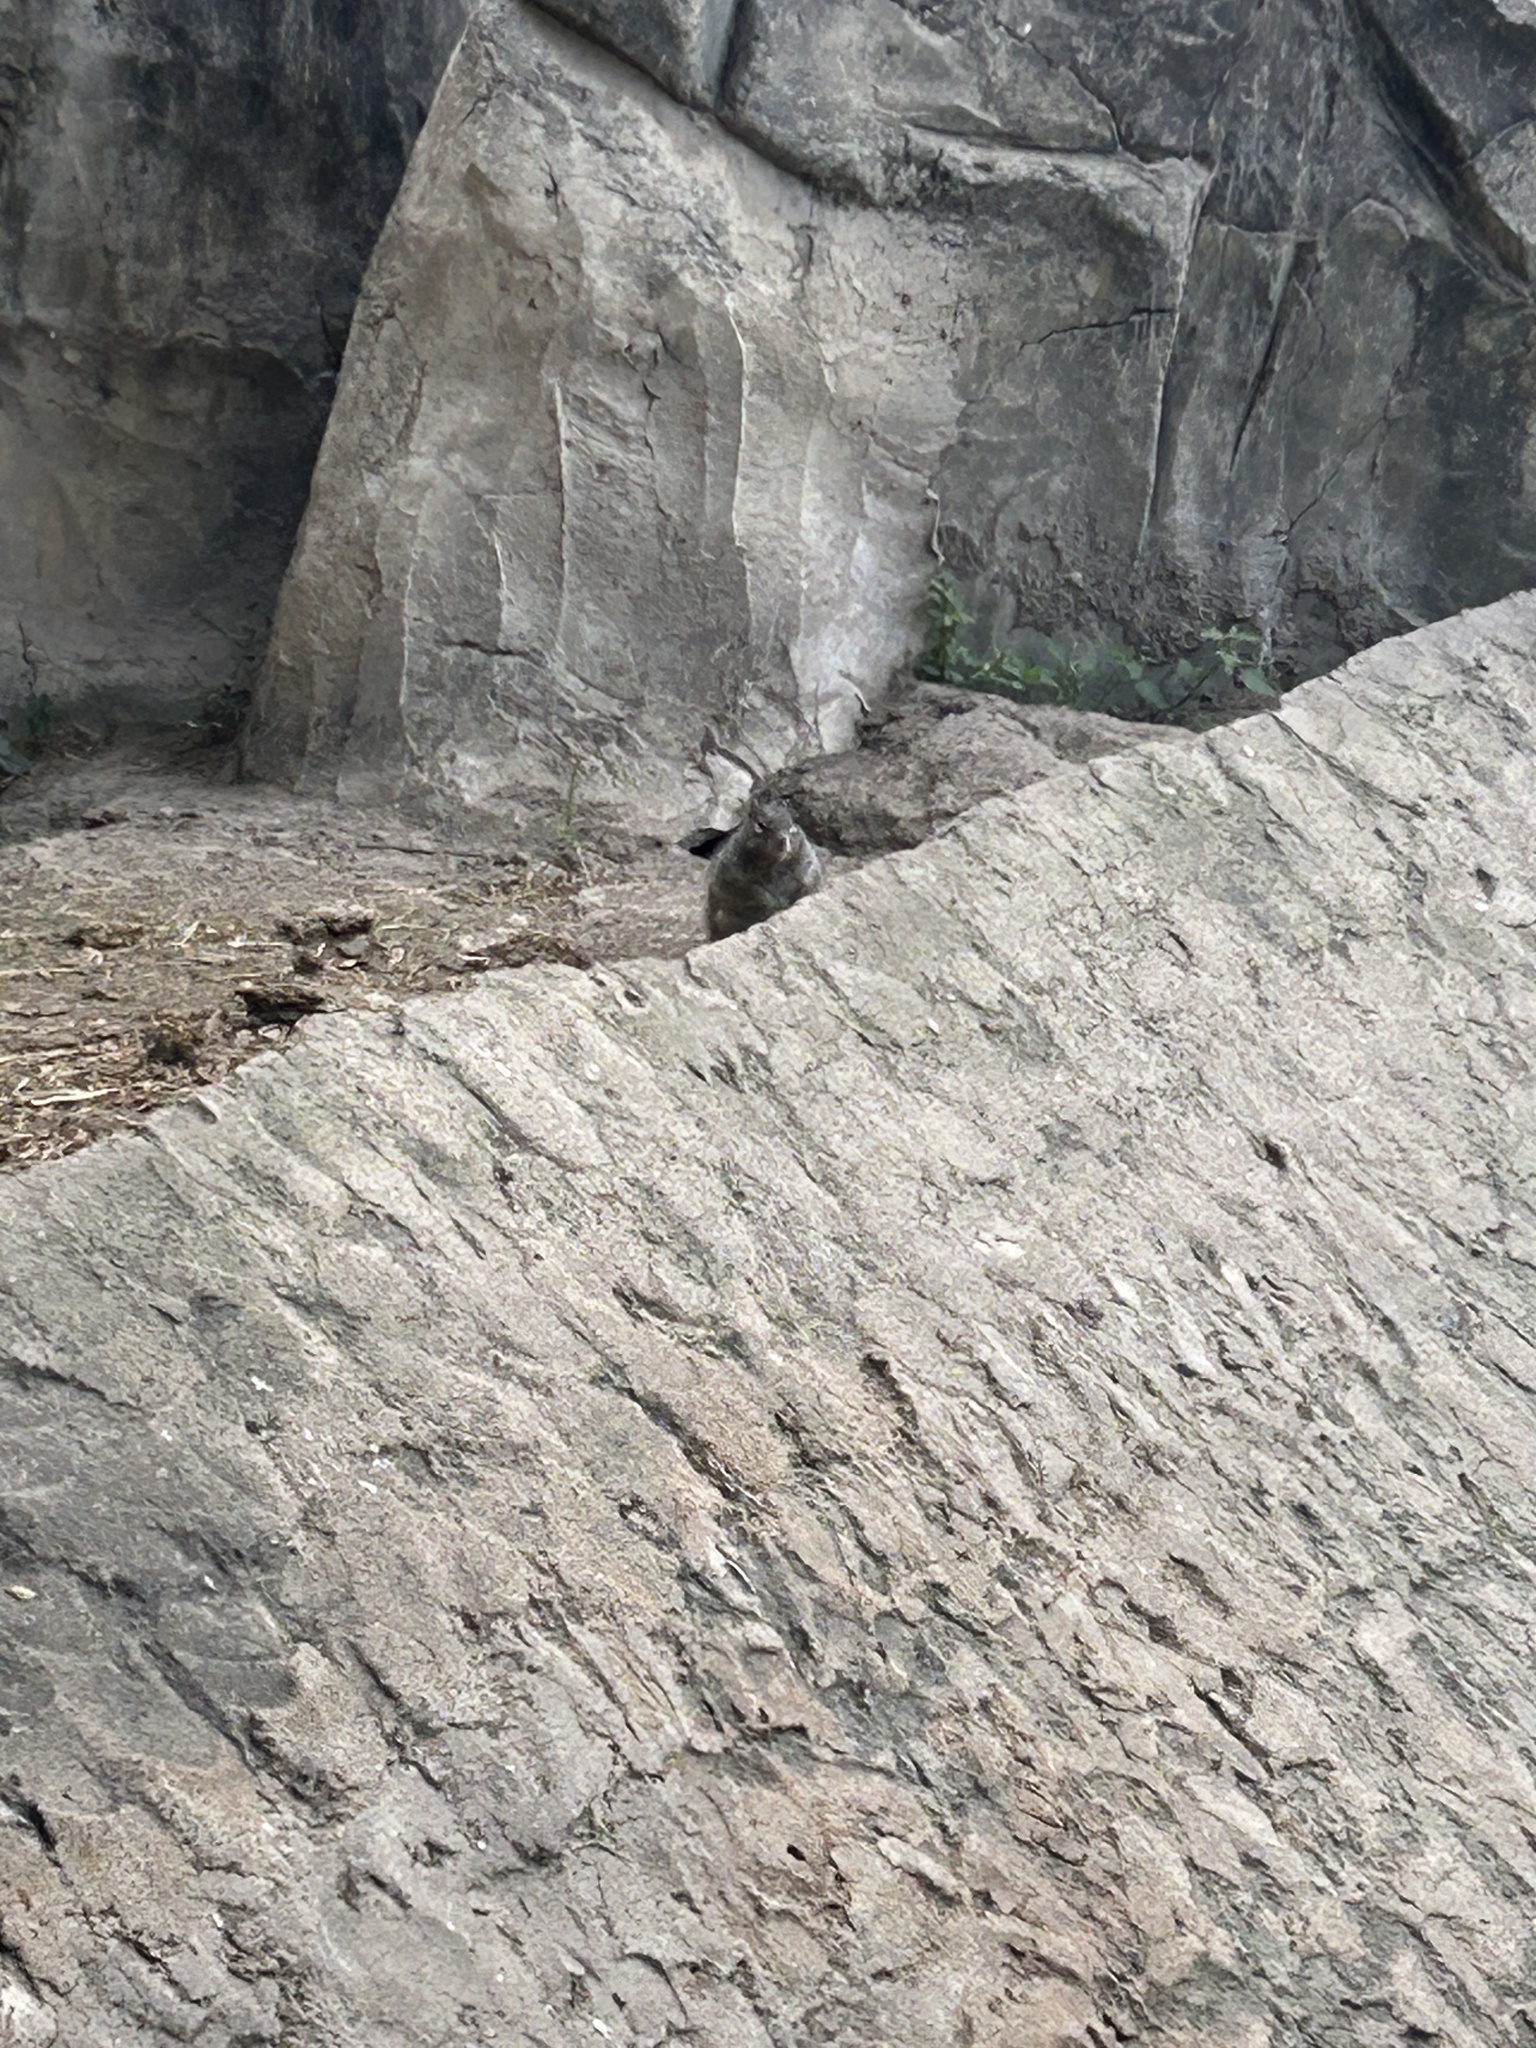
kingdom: Animalia
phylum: Chordata
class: Mammalia
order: Rodentia
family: Sciuridae
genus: Otospermophilus
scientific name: Otospermophilus variegatus
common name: Rock squirrel
